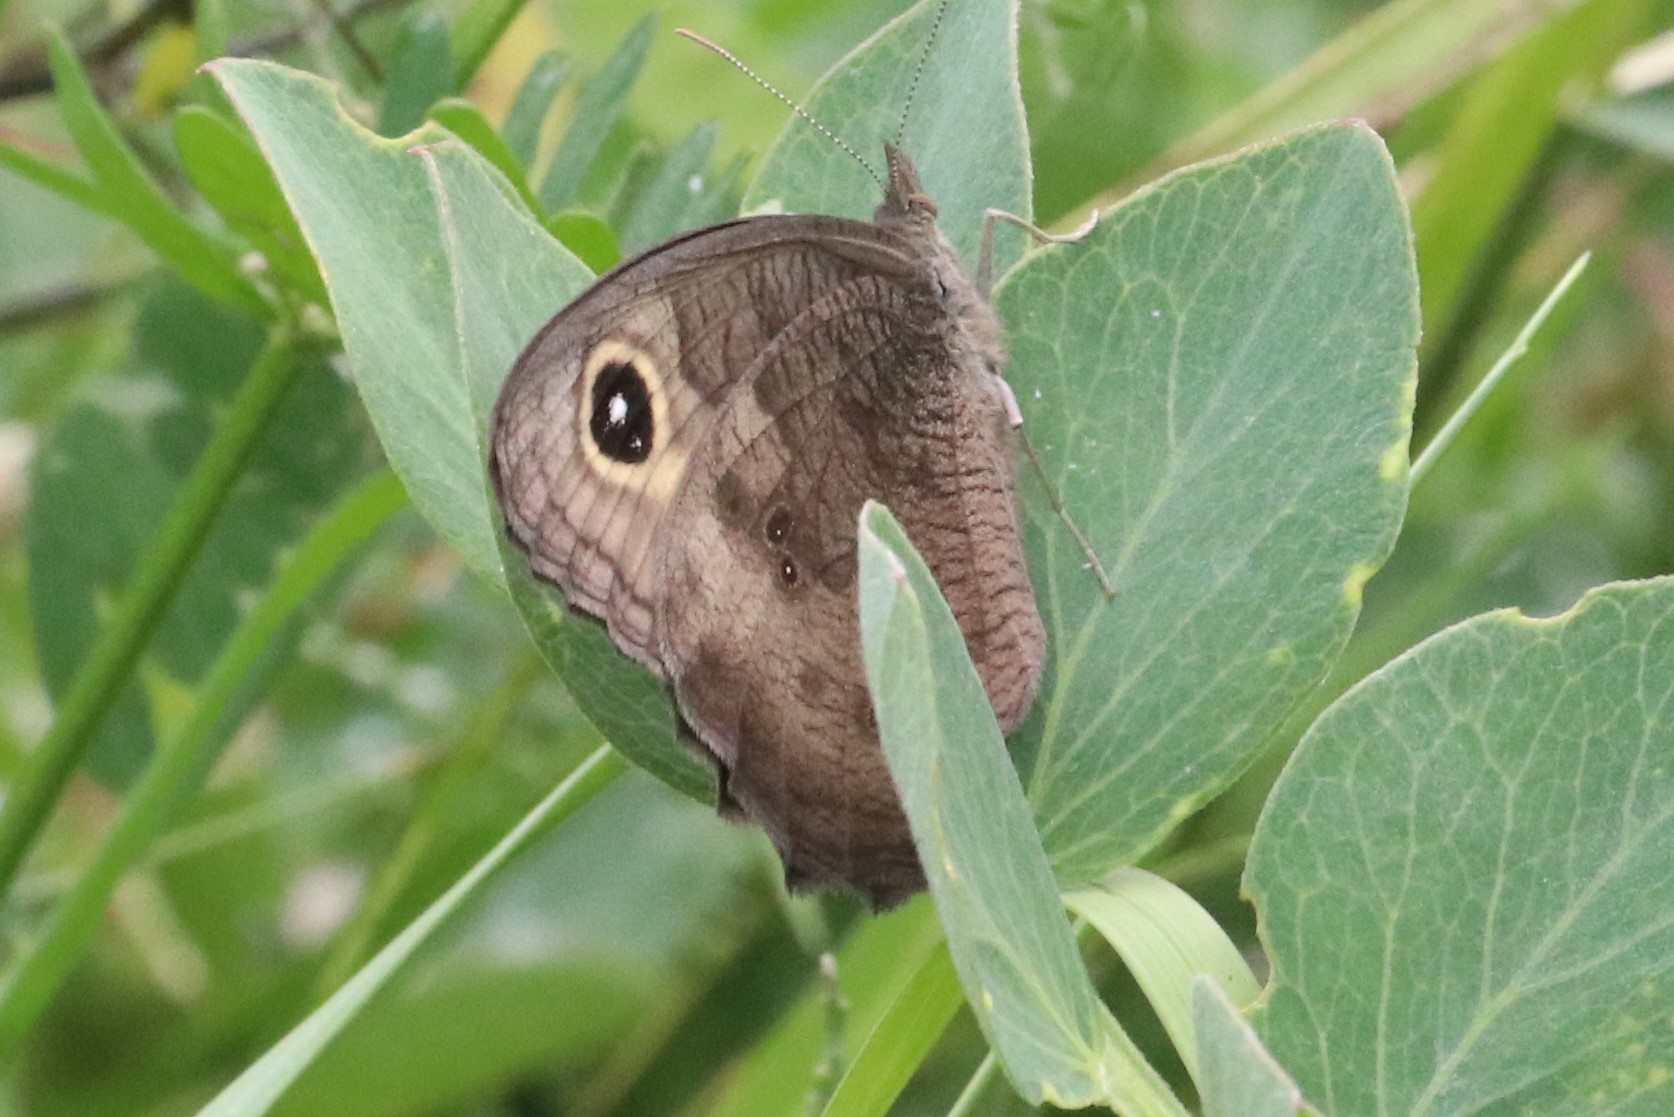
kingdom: Animalia
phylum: Arthropoda
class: Insecta
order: Lepidoptera
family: Nymphalidae
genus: Cercyonis
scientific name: Cercyonis pegala
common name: Common wood-nymph
